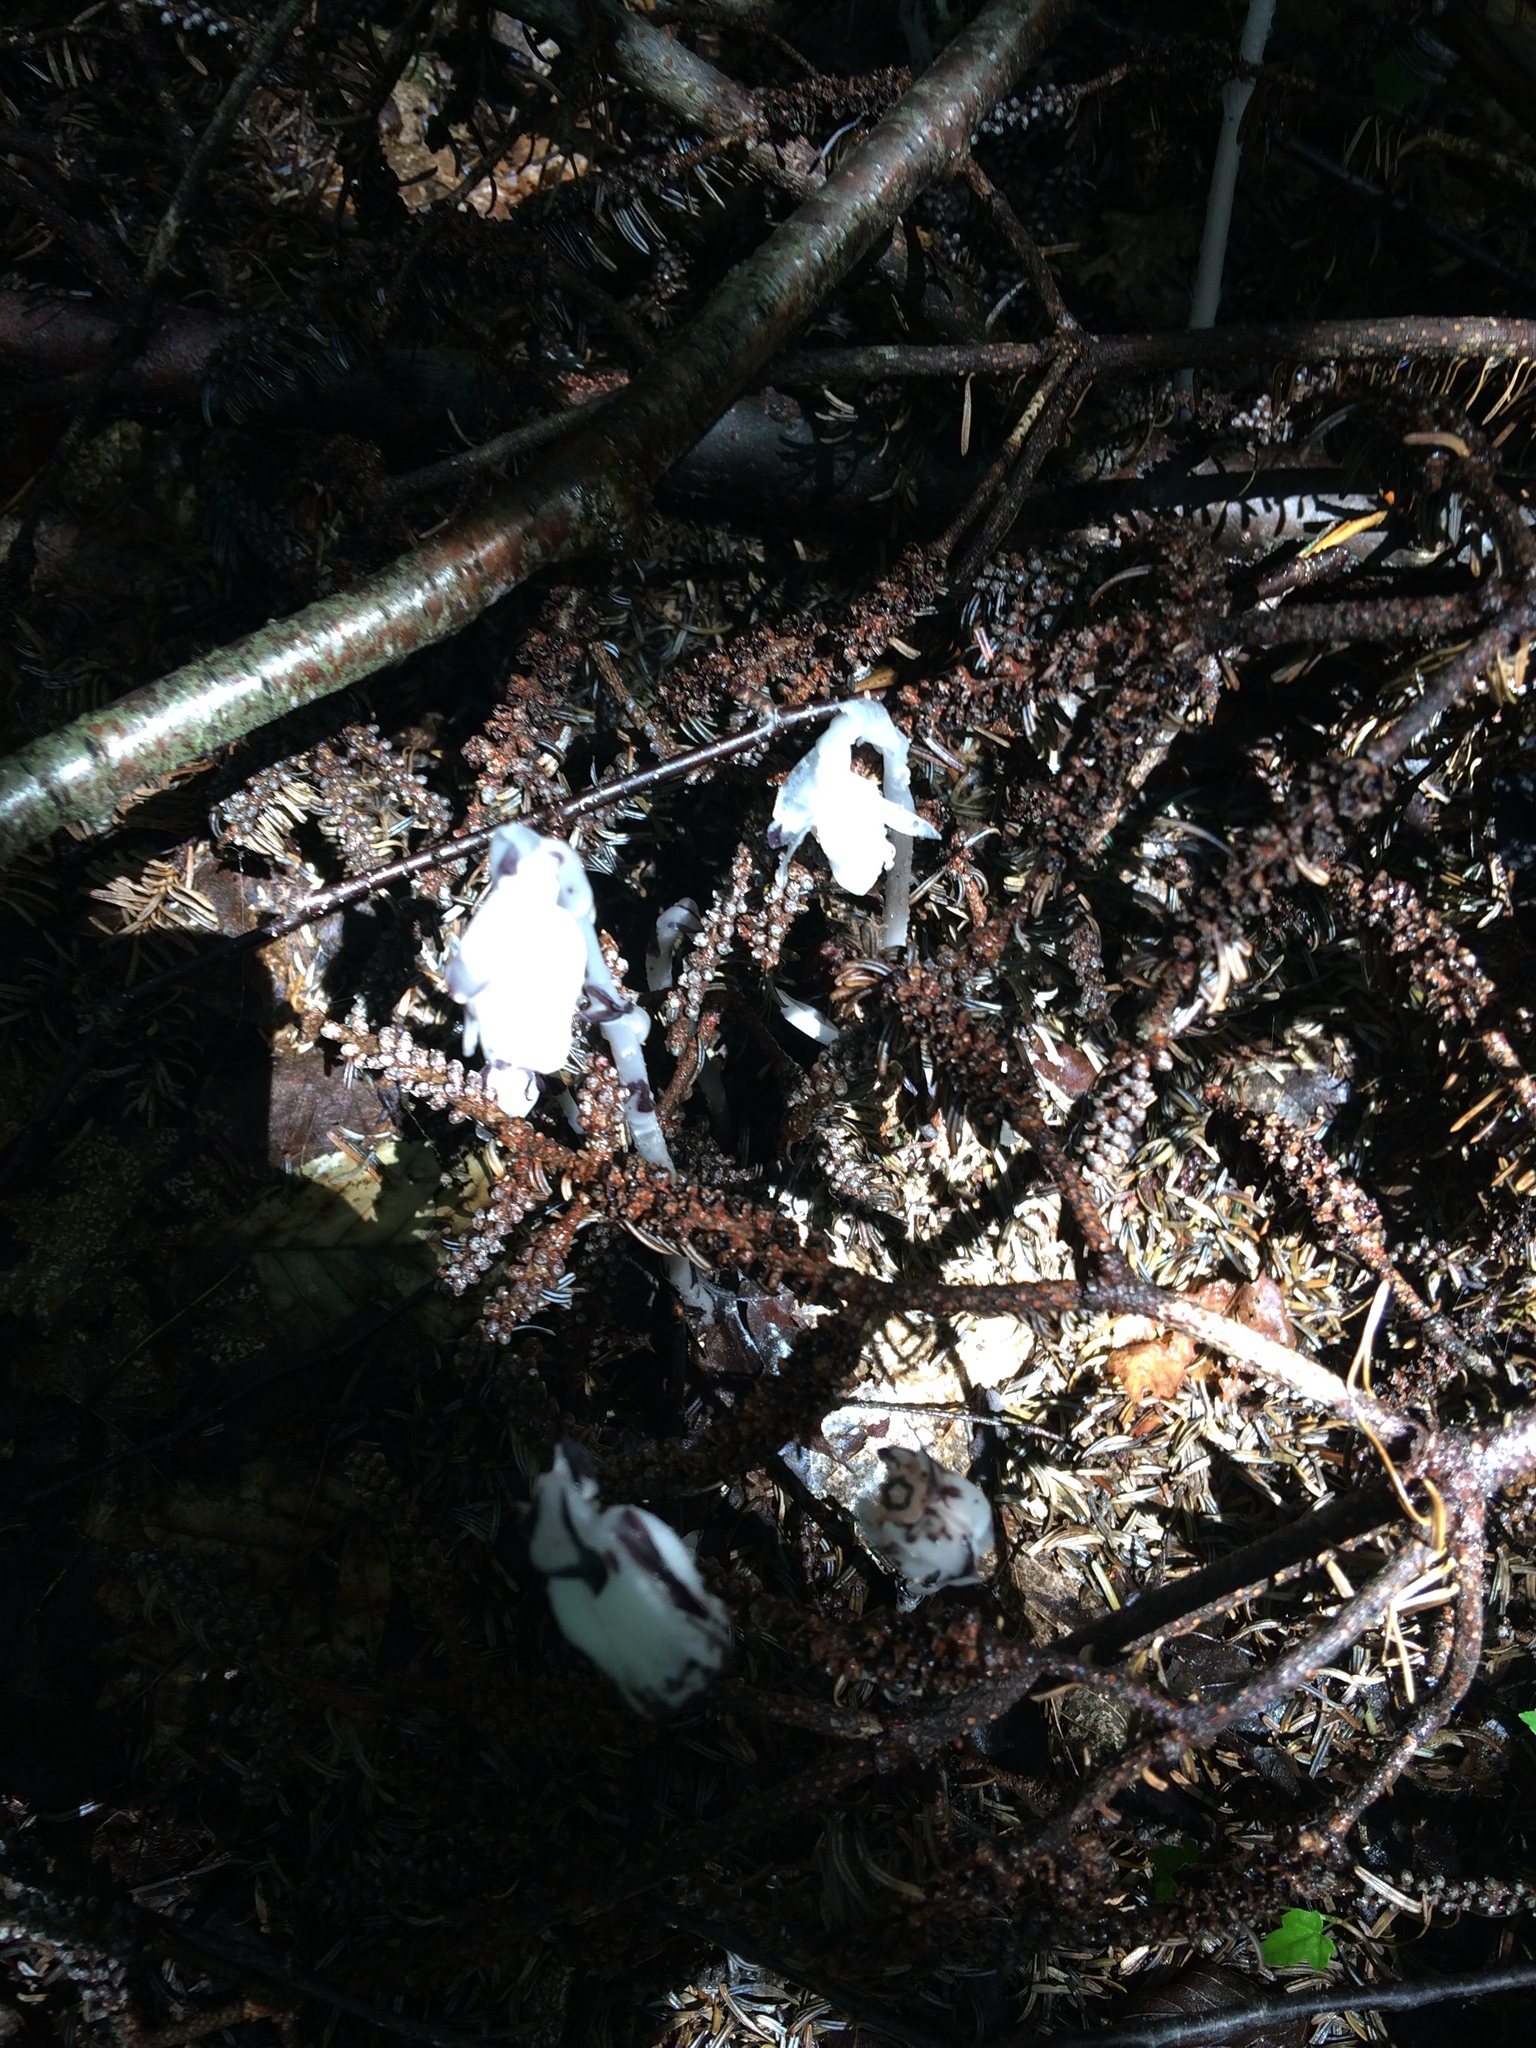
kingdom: Plantae
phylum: Tracheophyta
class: Magnoliopsida
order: Ericales
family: Ericaceae
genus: Monotropa
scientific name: Monotropa uniflora
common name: Convulsion root
